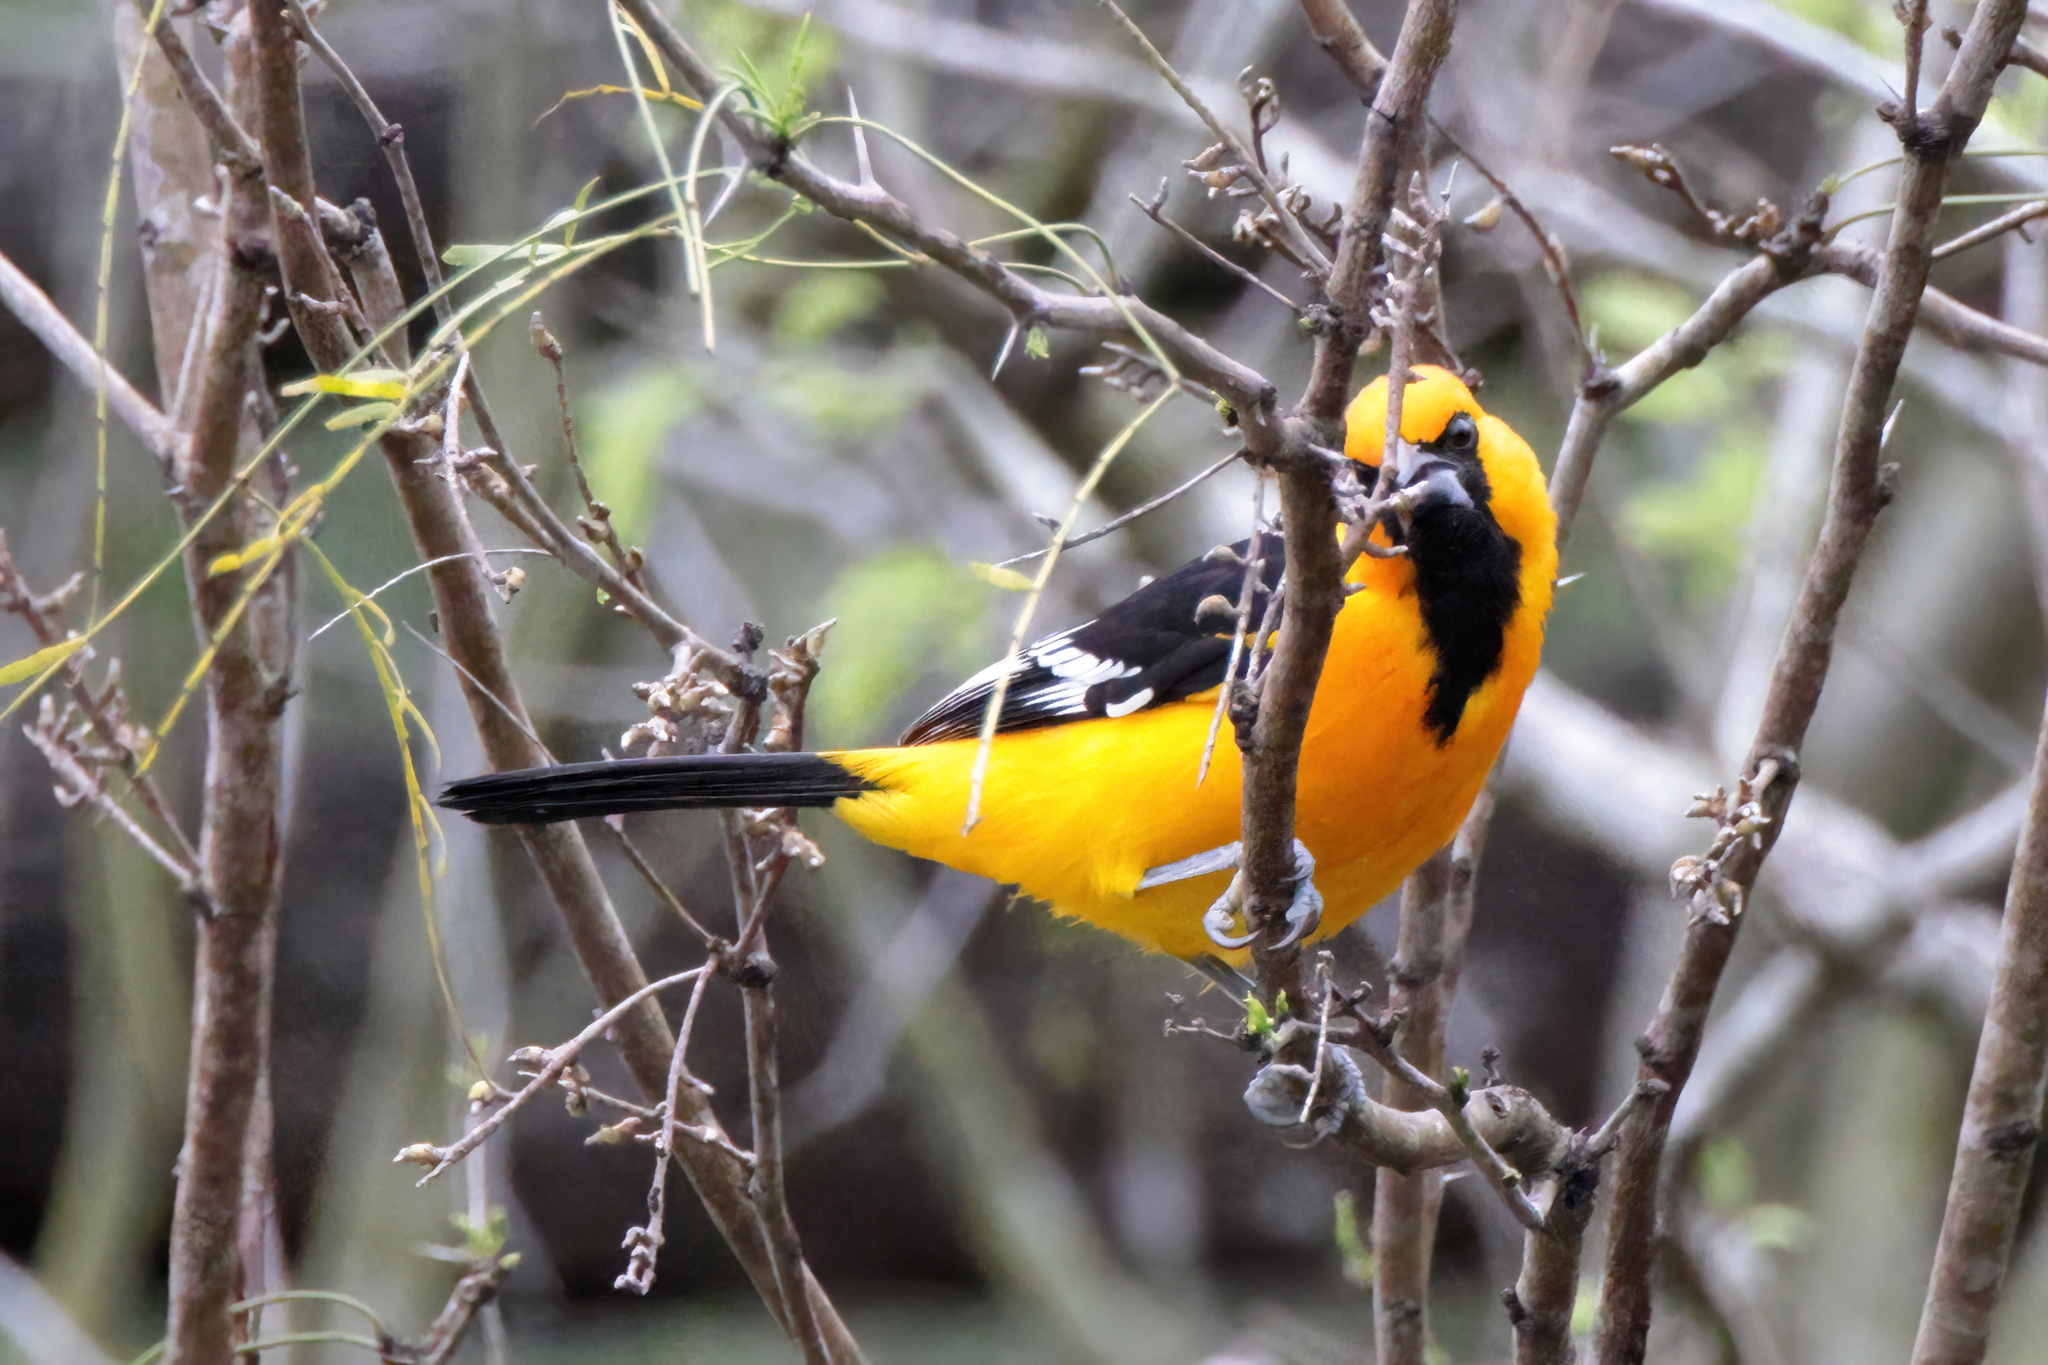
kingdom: Animalia
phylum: Chordata
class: Aves
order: Passeriformes
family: Icteridae
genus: Icterus
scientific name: Icterus gularis
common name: Altamira oriole
